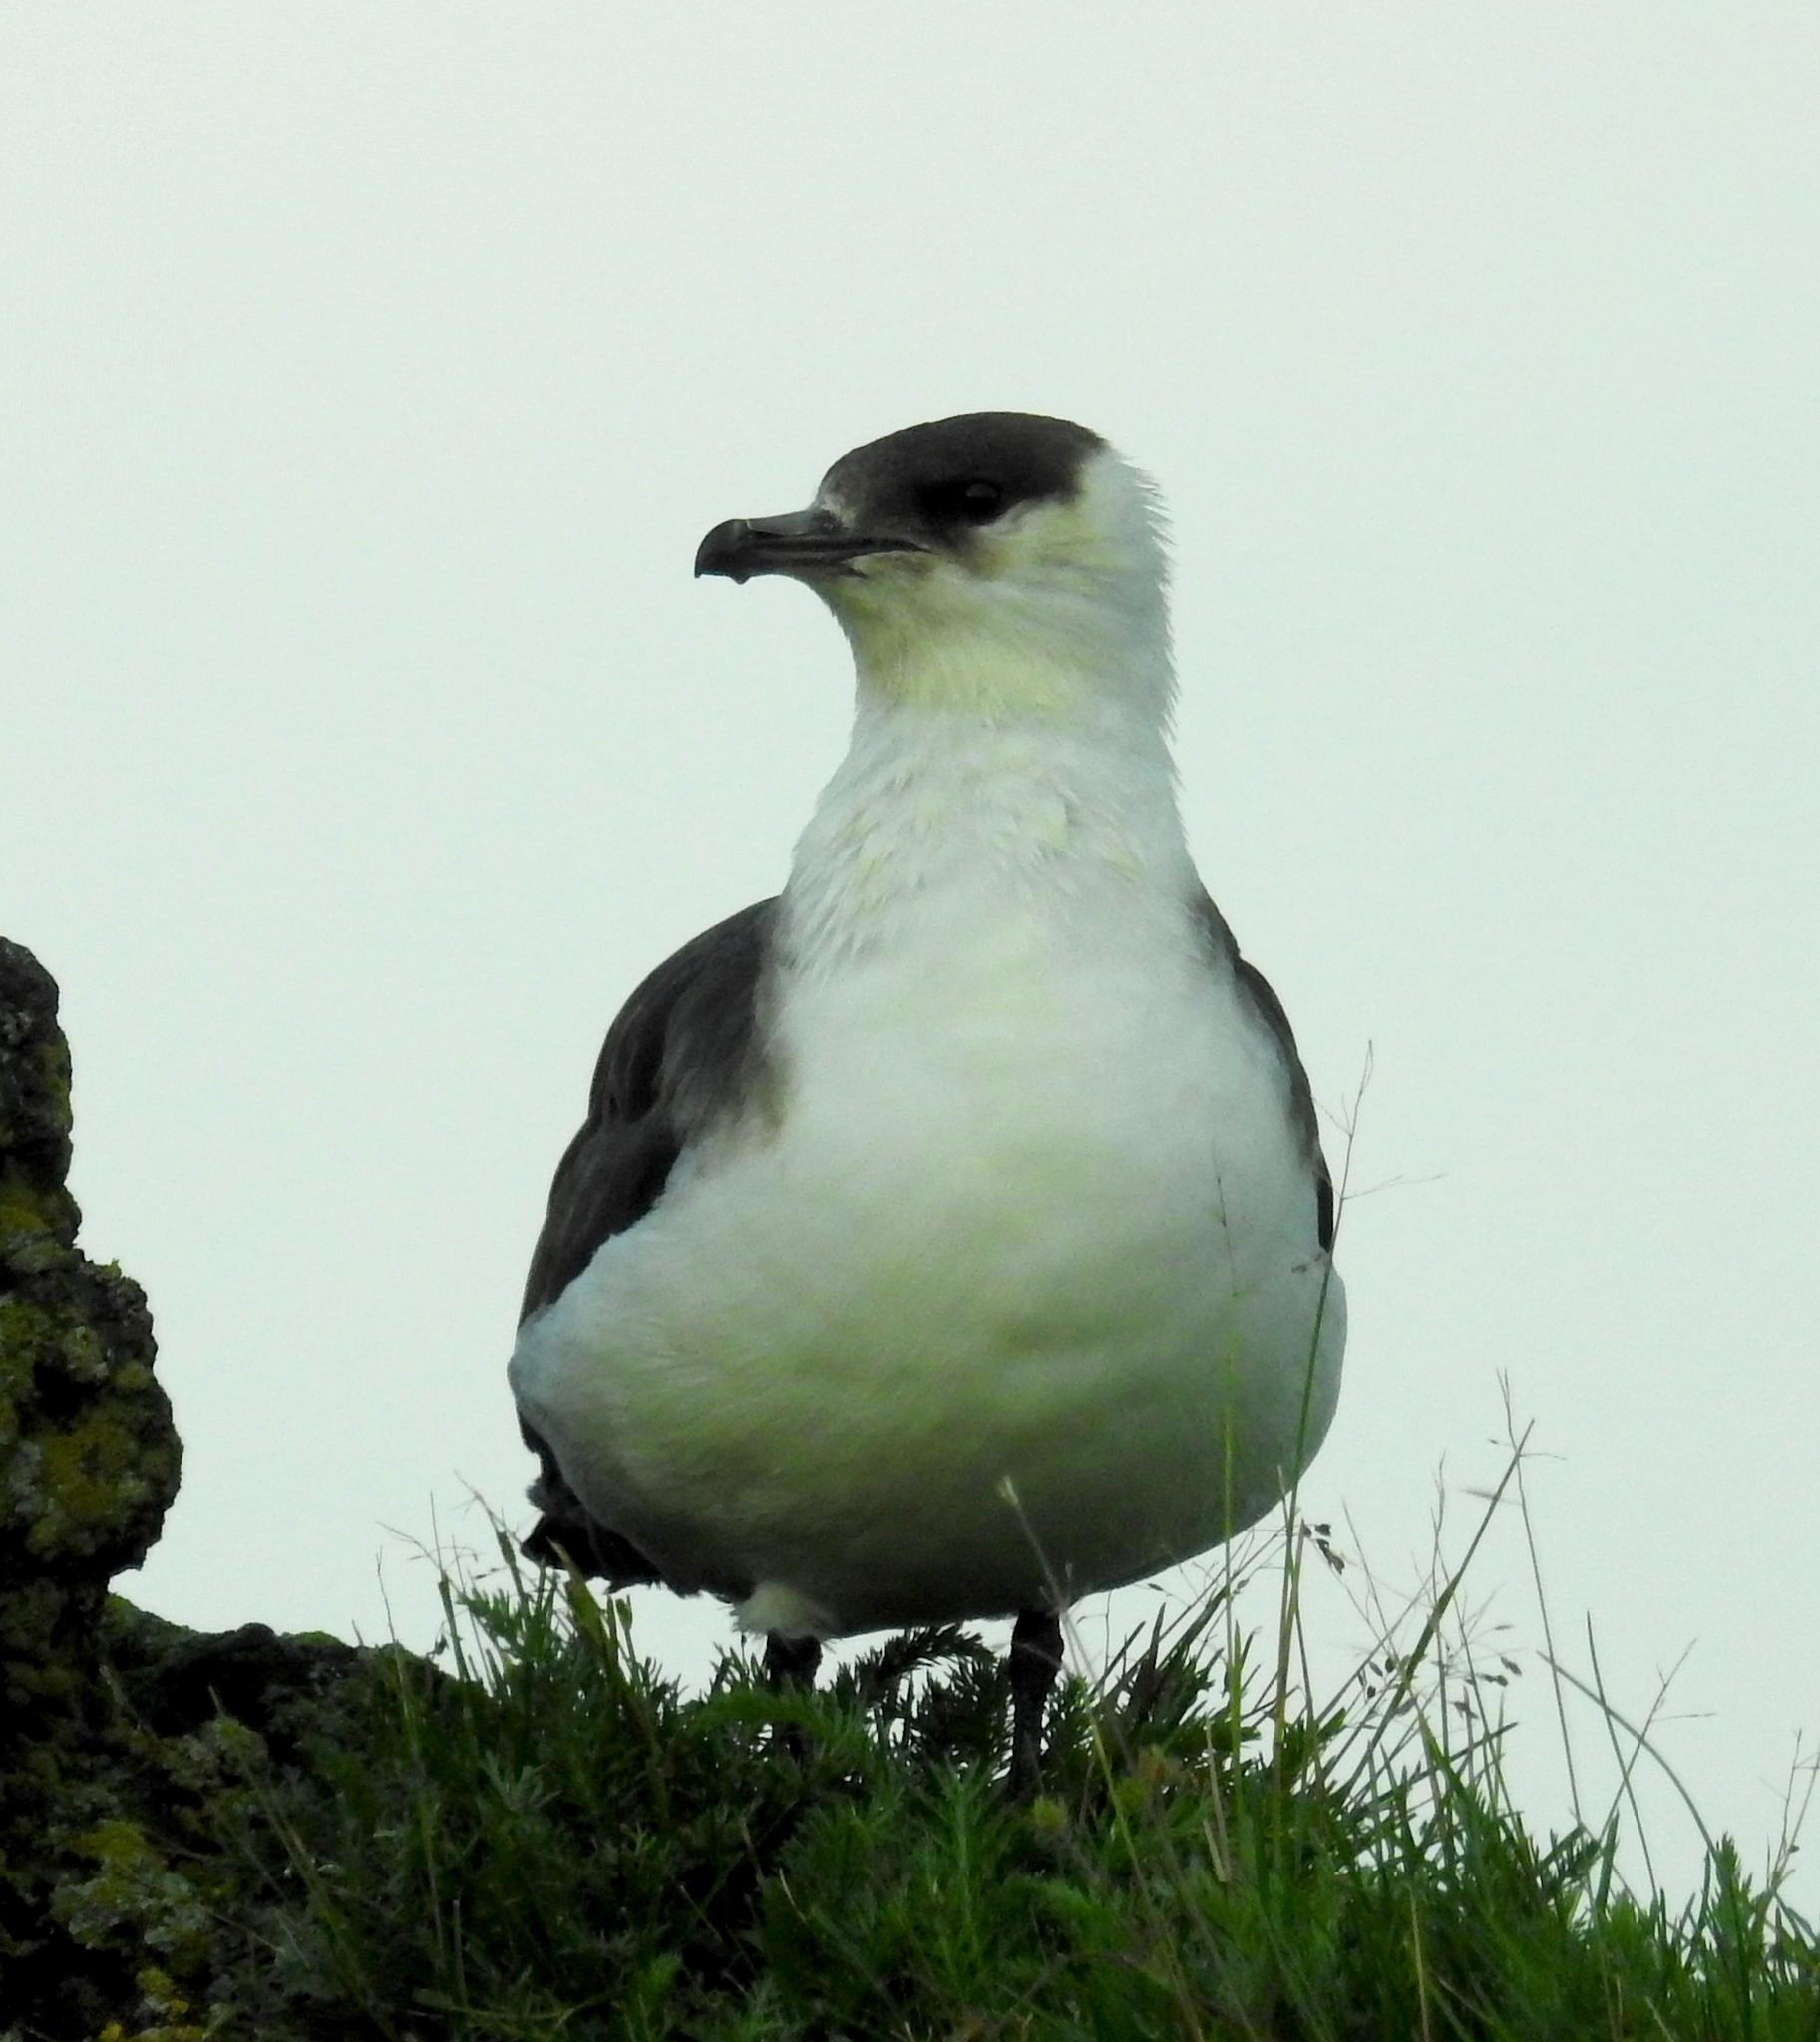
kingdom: Animalia
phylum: Chordata
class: Aves
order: Charadriiformes
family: Stercorariidae
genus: Stercorarius
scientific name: Stercorarius parasiticus
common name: Parasitic jaeger
